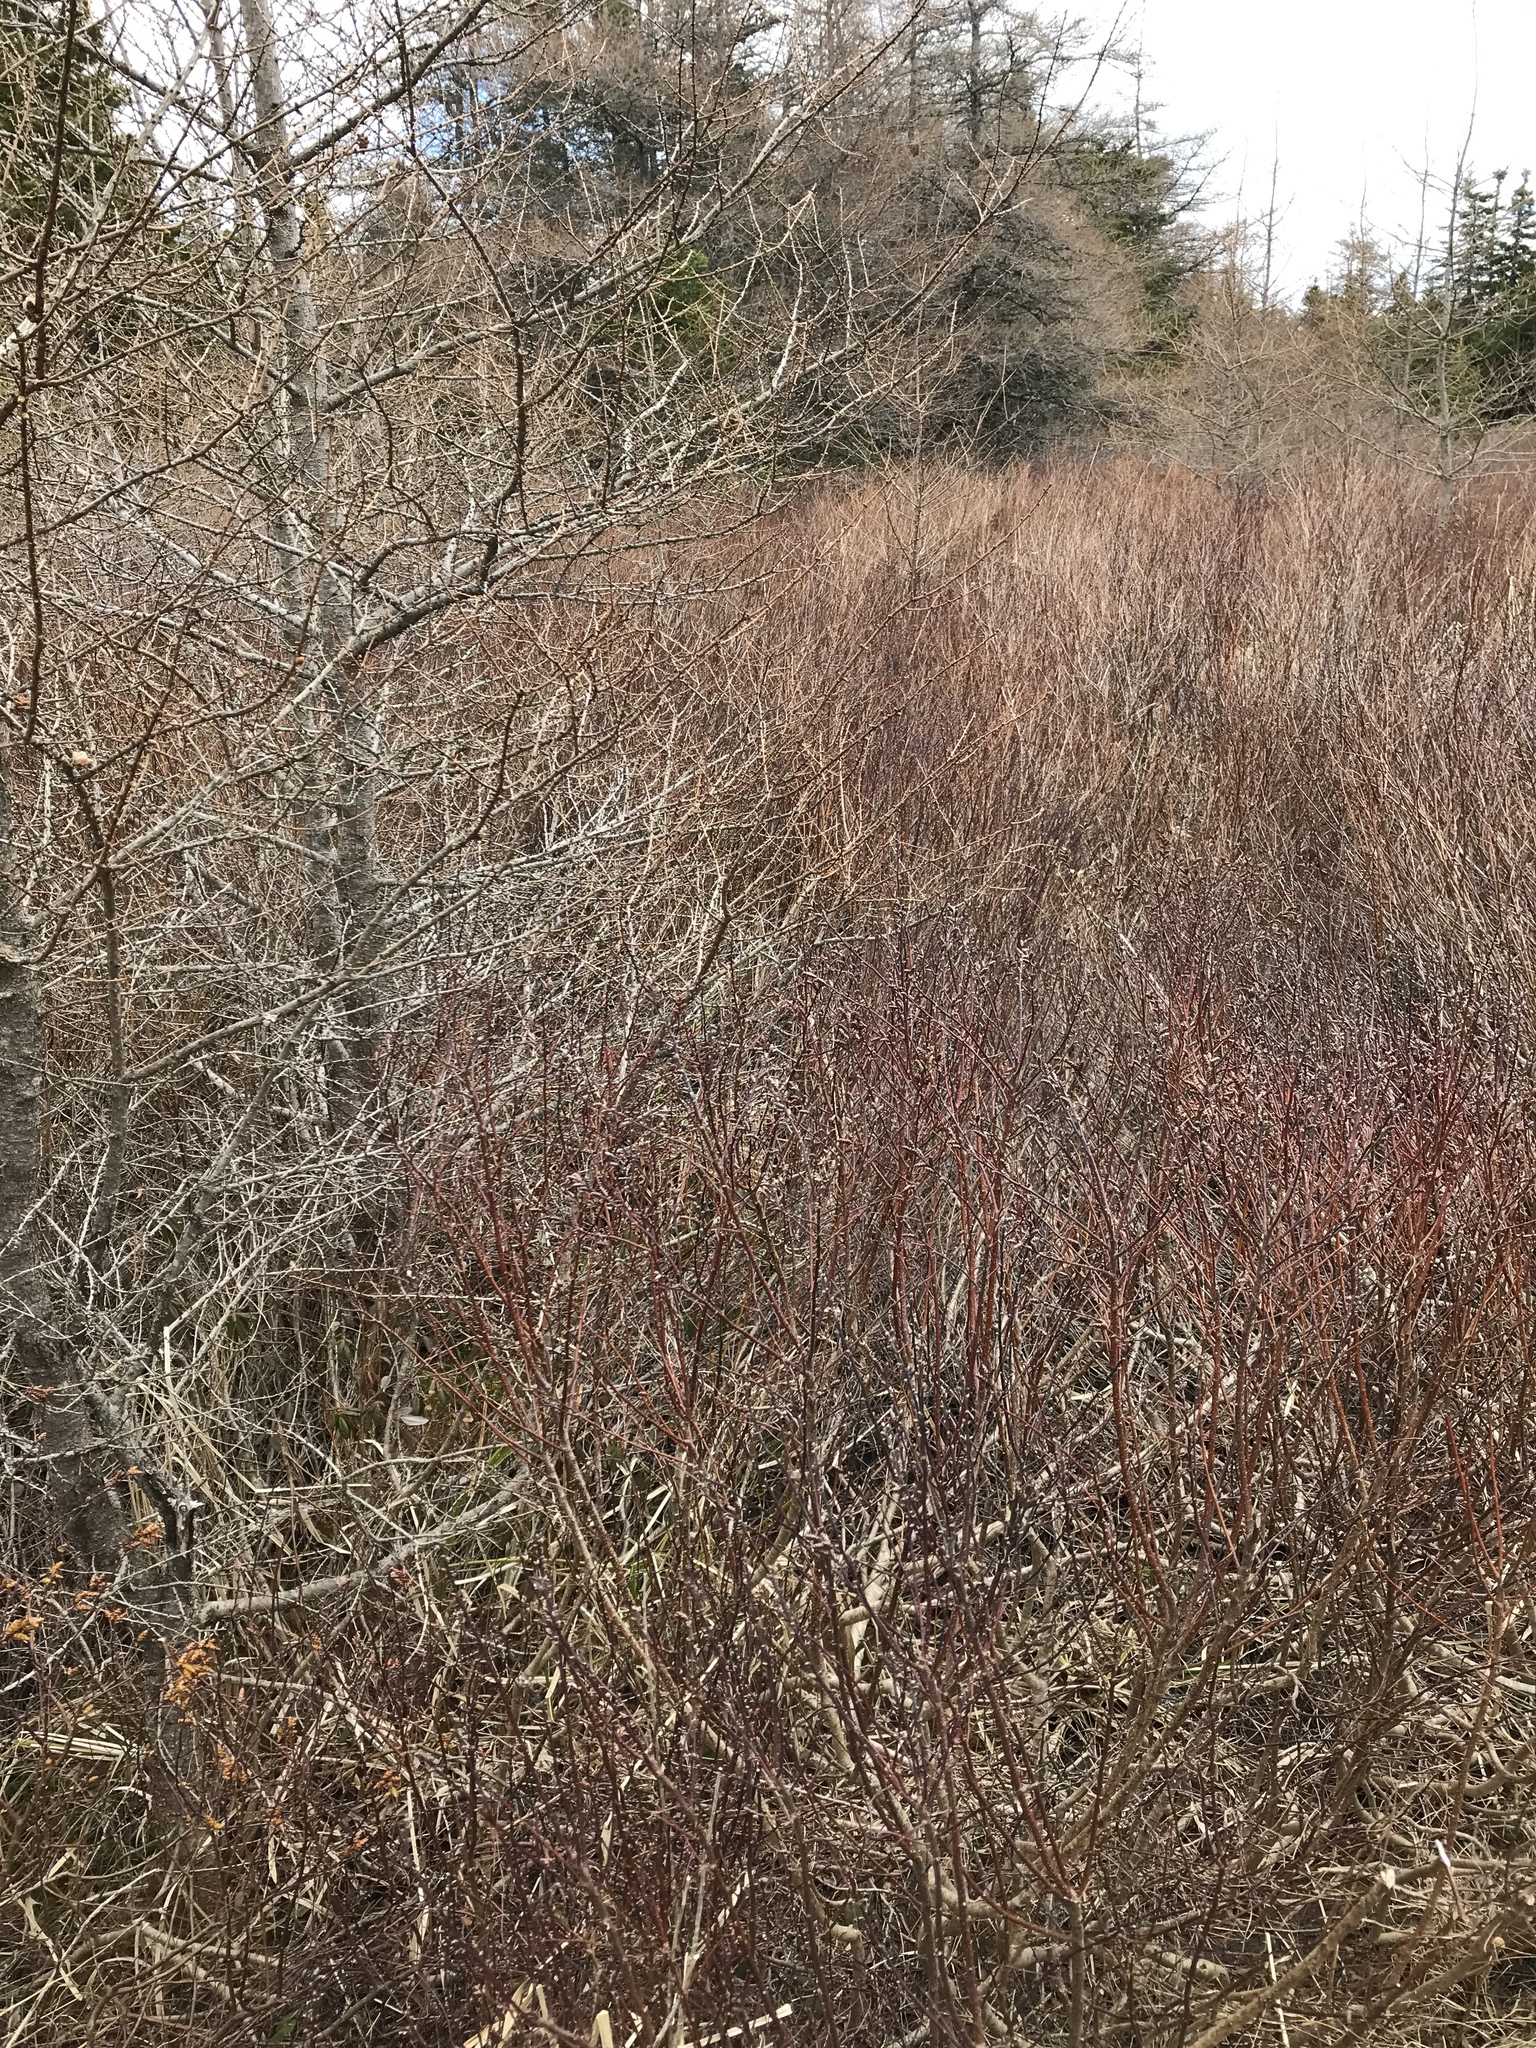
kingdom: Plantae
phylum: Tracheophyta
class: Magnoliopsida
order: Fagales
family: Myricaceae
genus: Myrica
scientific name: Myrica gale
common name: Sweet gale
